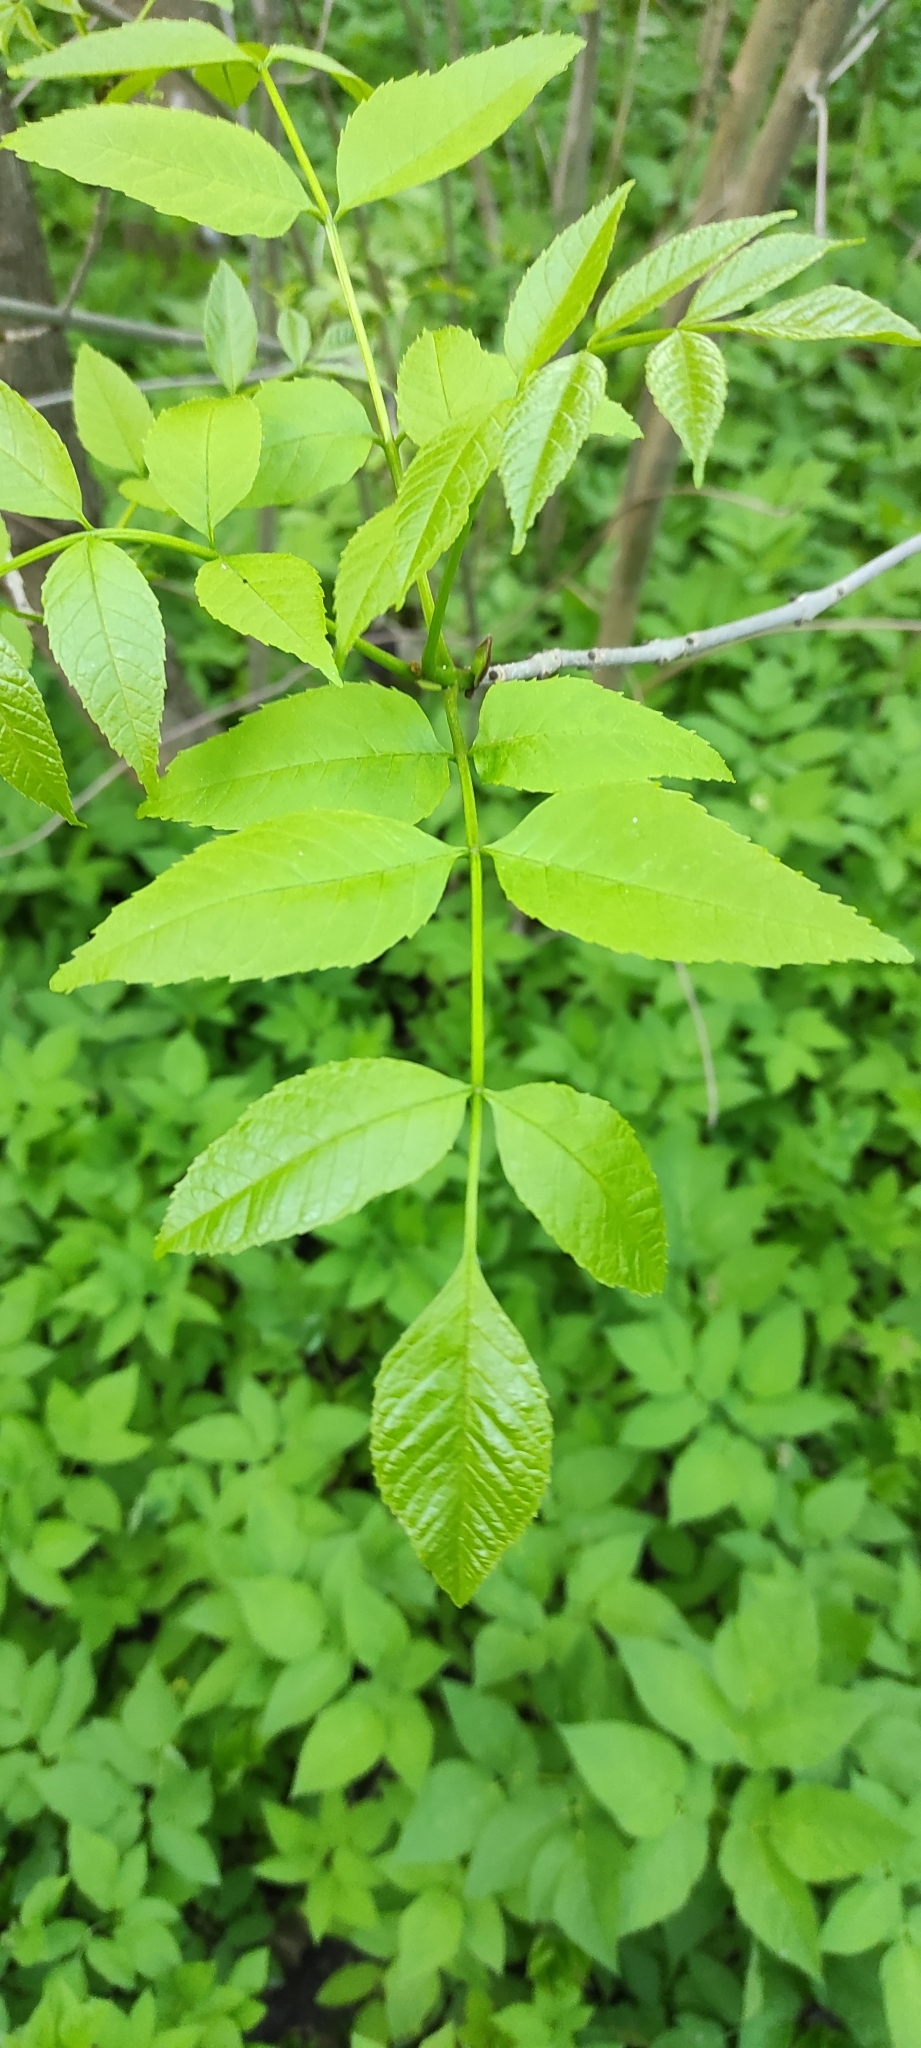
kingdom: Plantae
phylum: Tracheophyta
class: Magnoliopsida
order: Lamiales
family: Oleaceae
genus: Fraxinus
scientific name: Fraxinus pennsylvanica
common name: Green ash
